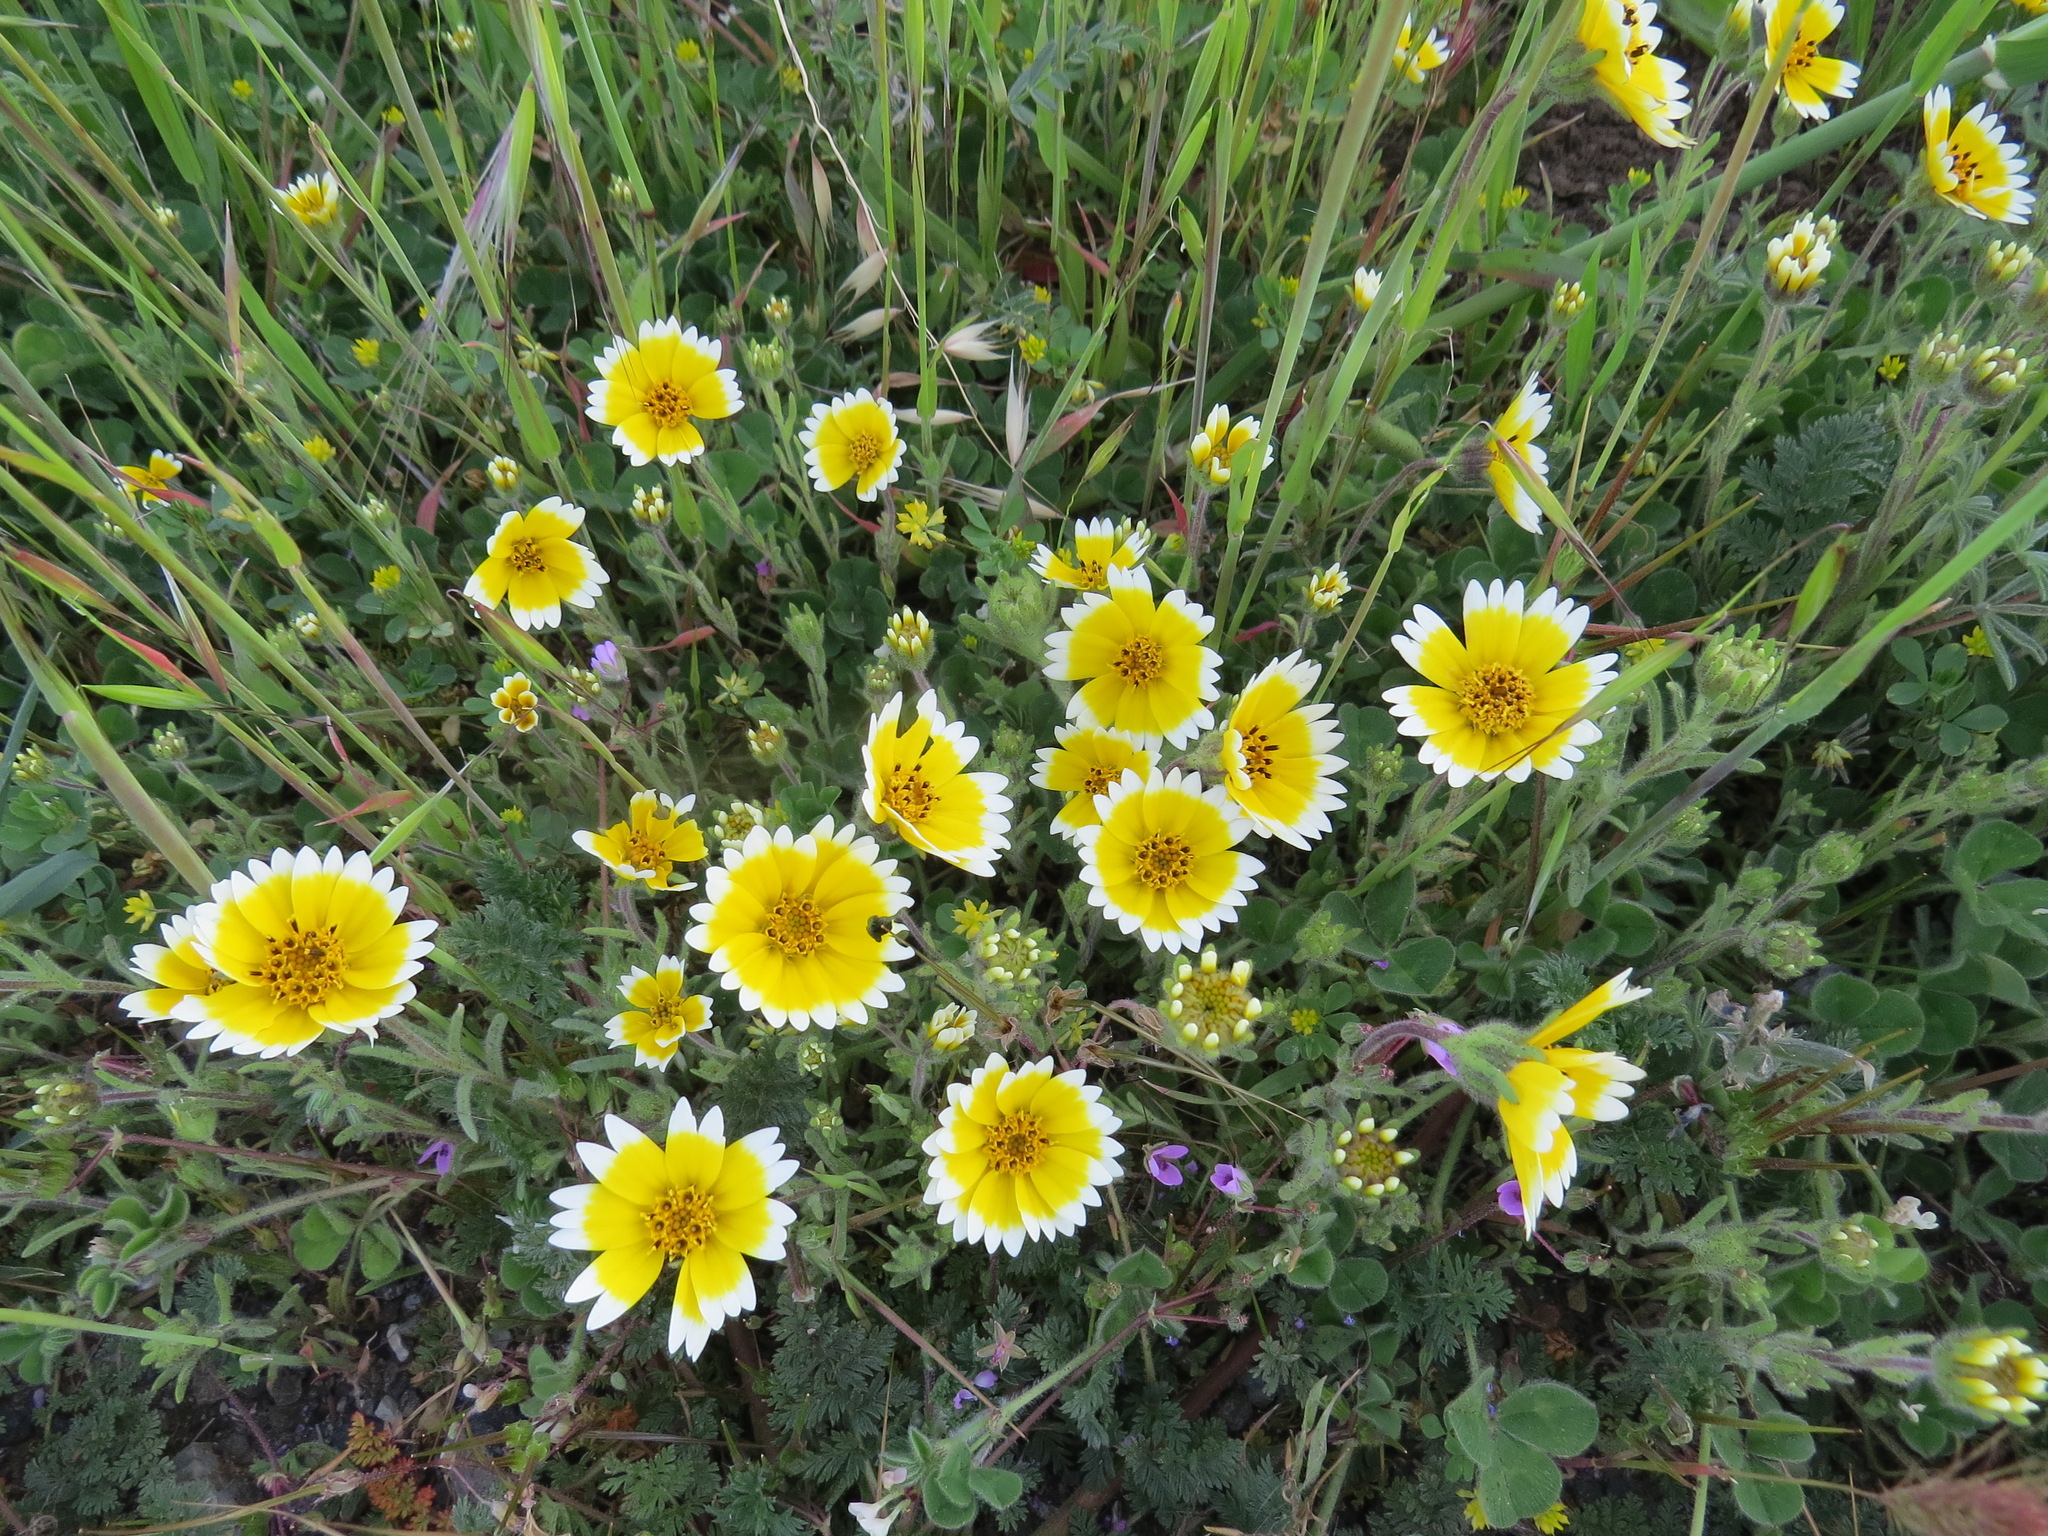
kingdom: Plantae
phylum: Tracheophyta
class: Magnoliopsida
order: Asterales
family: Asteraceae
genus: Layia
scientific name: Layia platyglossa
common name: Tidy-tips
